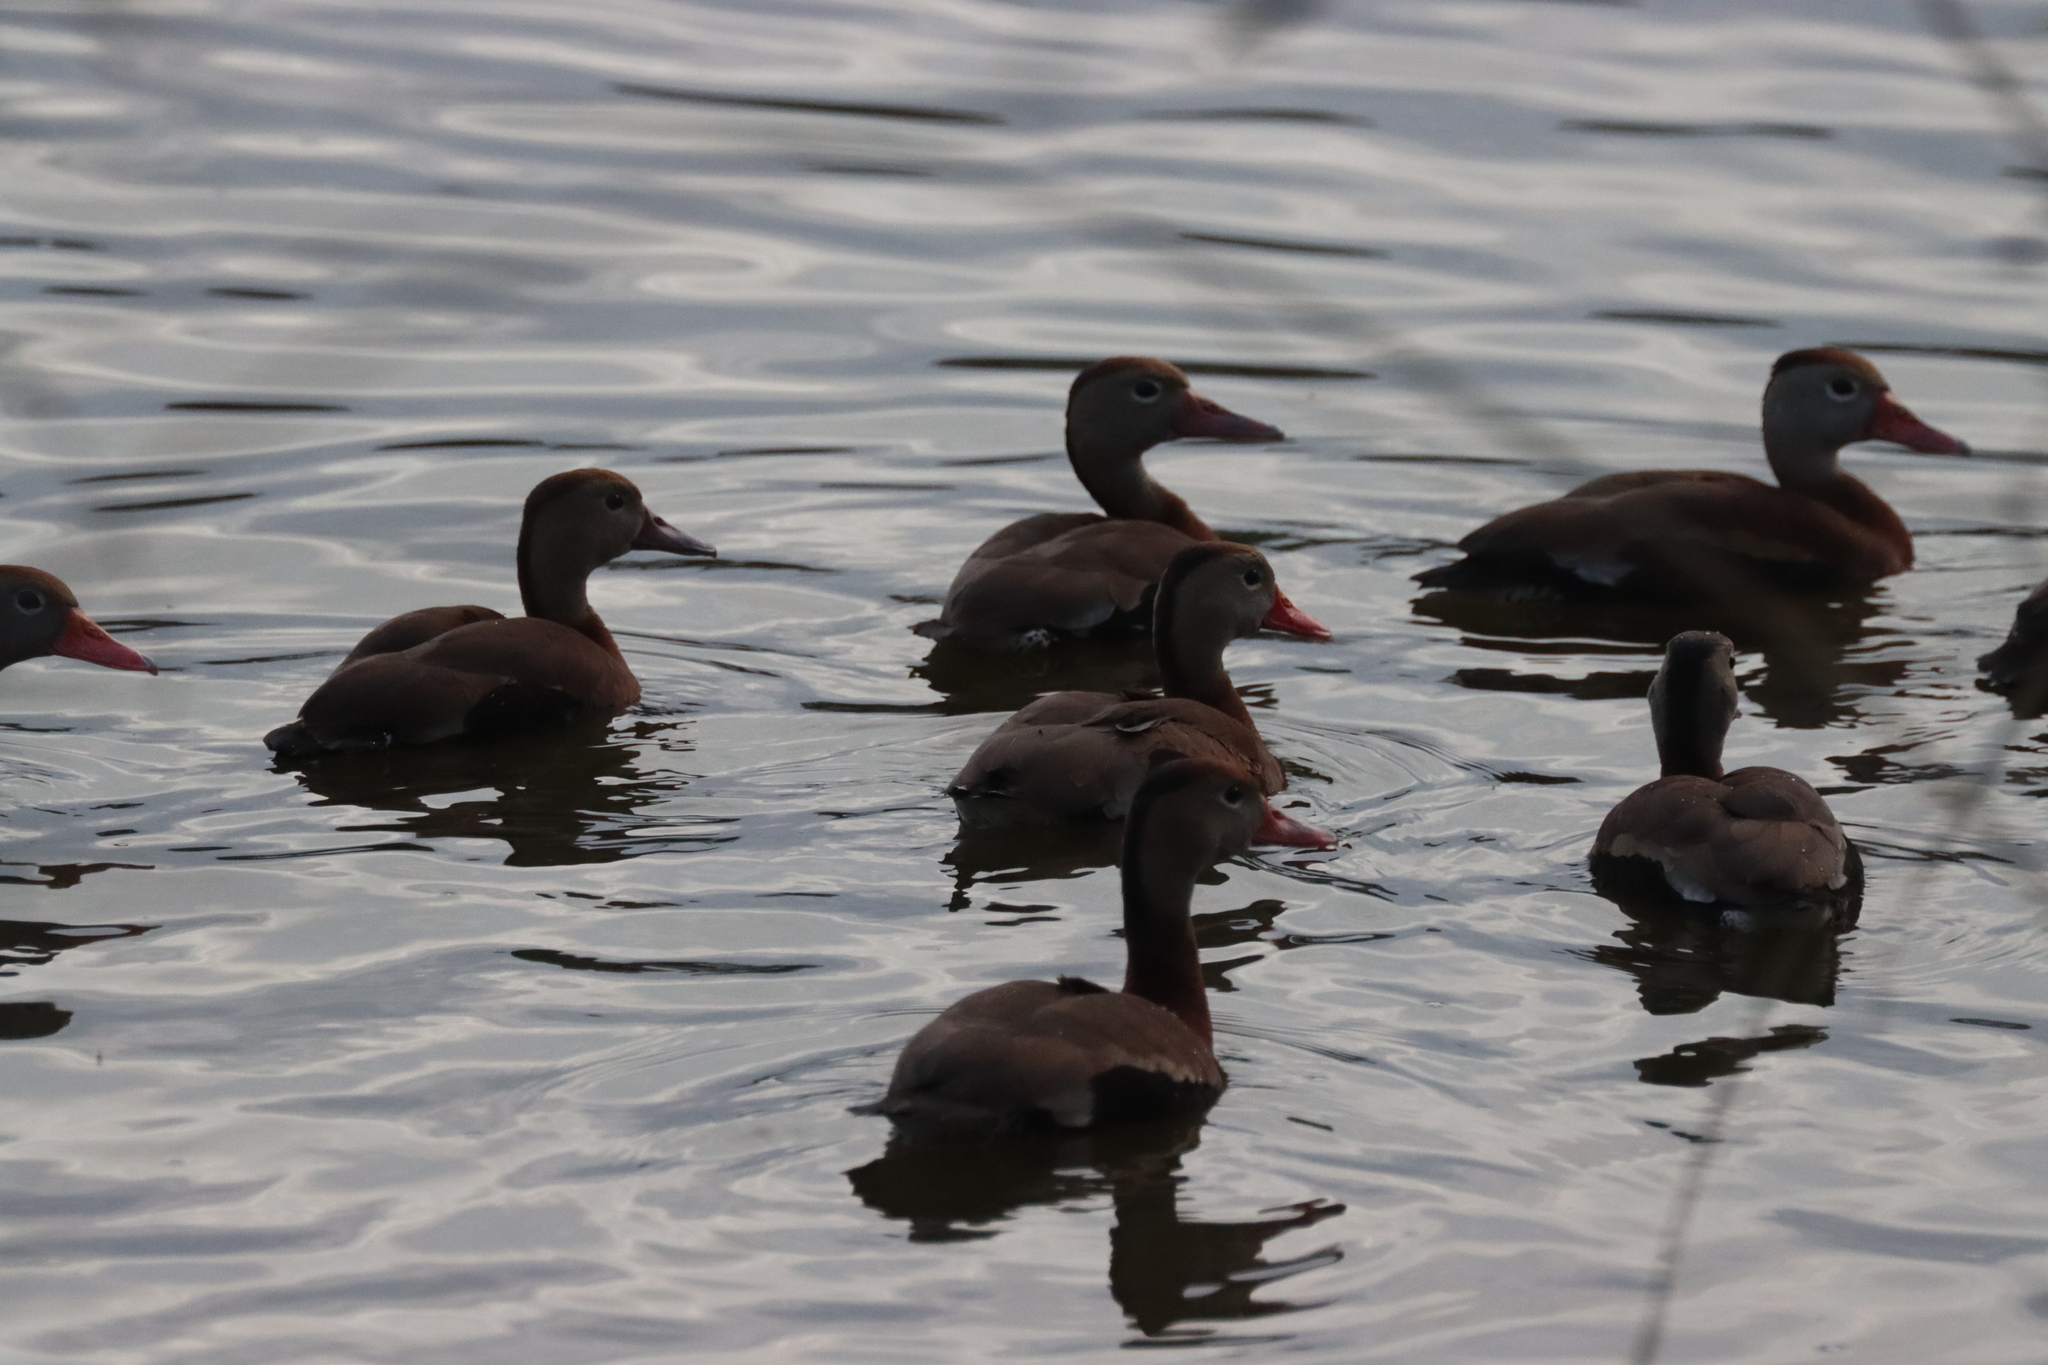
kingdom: Animalia
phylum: Chordata
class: Aves
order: Anseriformes
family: Anatidae
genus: Dendrocygna
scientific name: Dendrocygna autumnalis
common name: Black-bellied whistling duck
